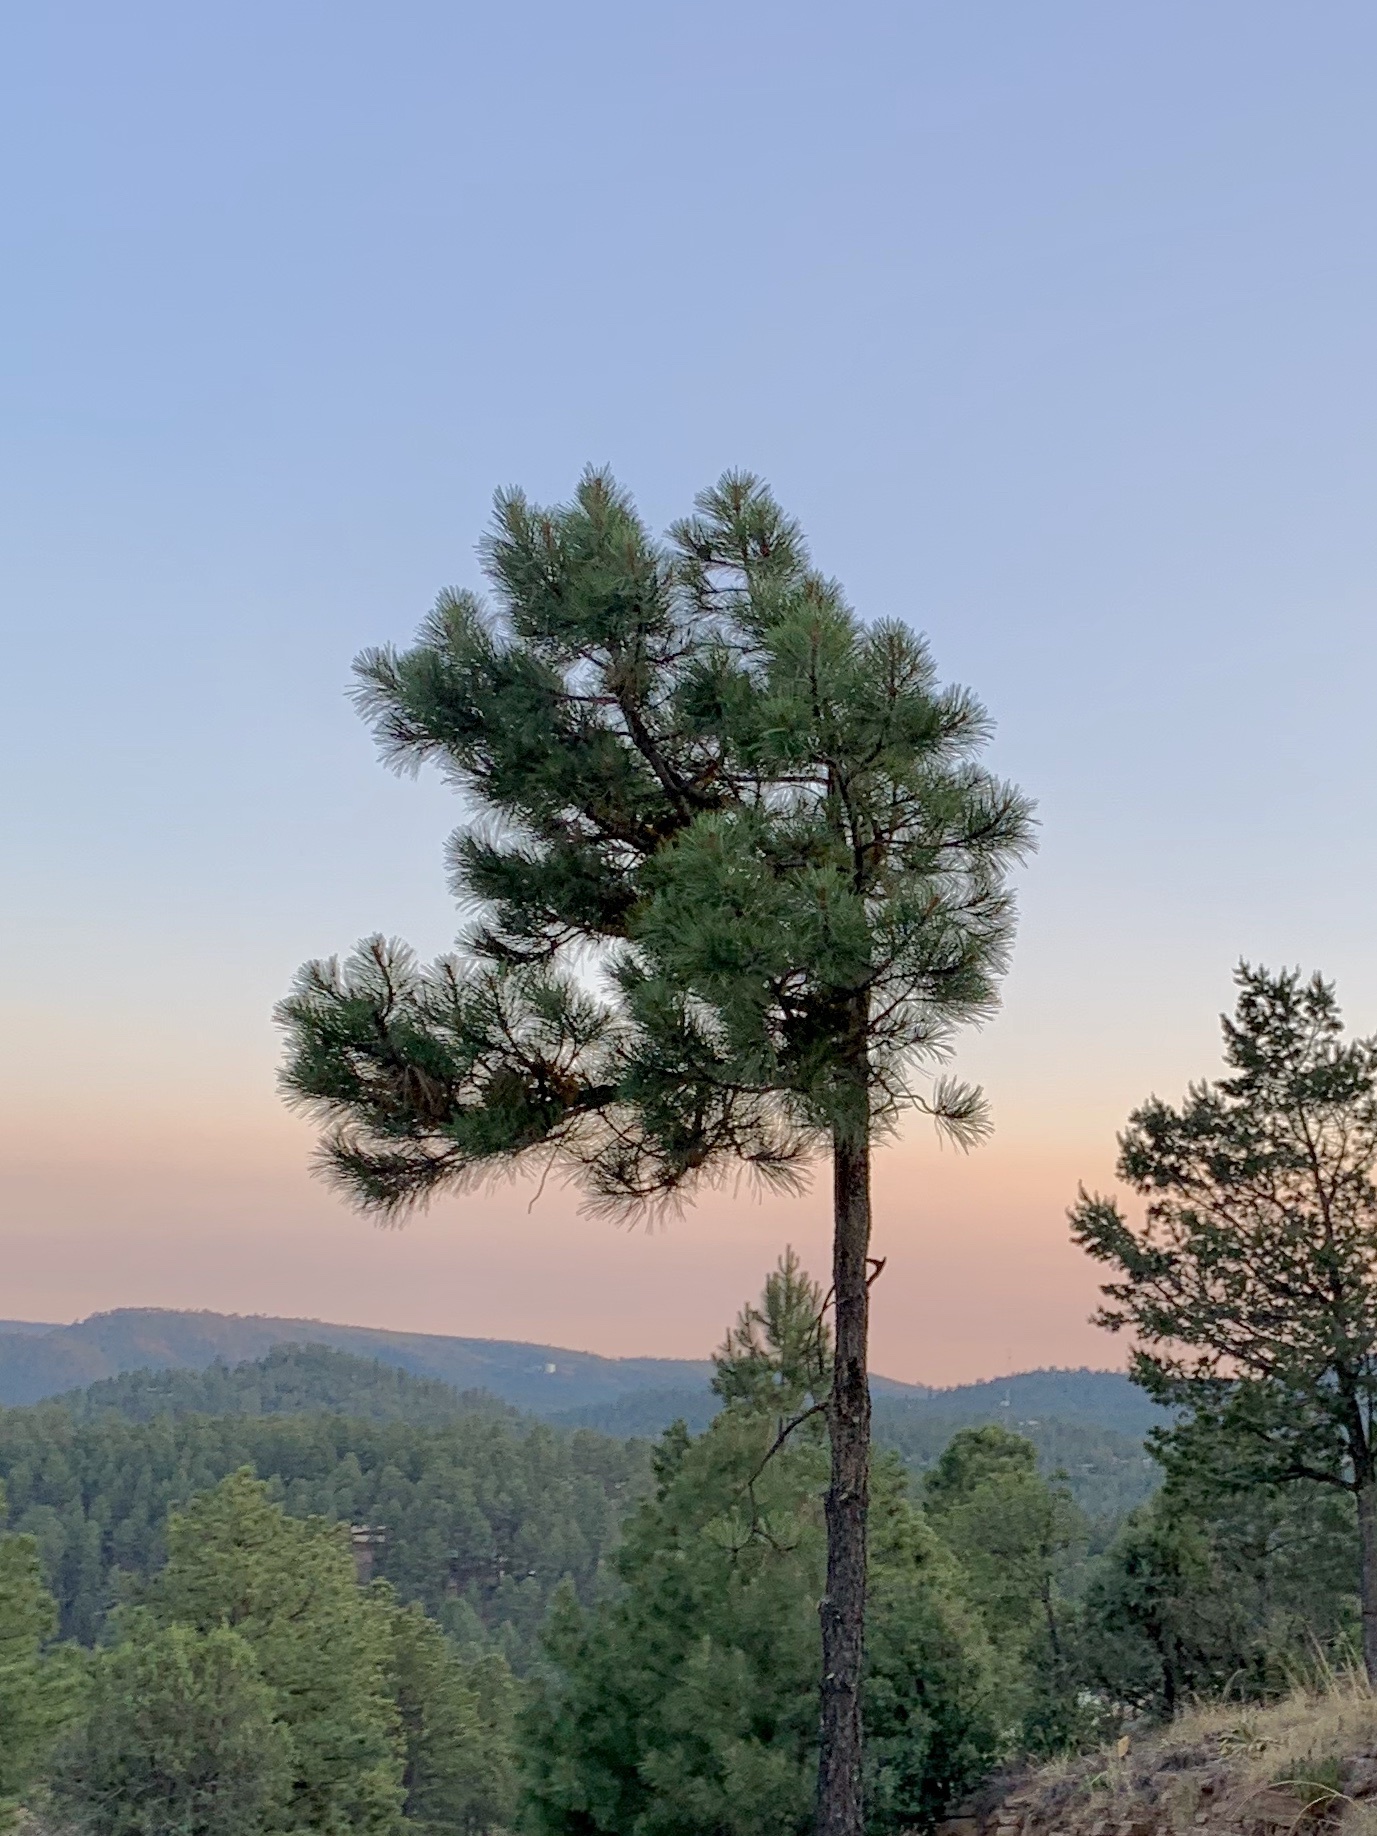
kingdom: Plantae
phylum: Tracheophyta
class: Pinopsida
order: Pinales
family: Pinaceae
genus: Pinus
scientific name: Pinus ponderosa
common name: Western yellow-pine
